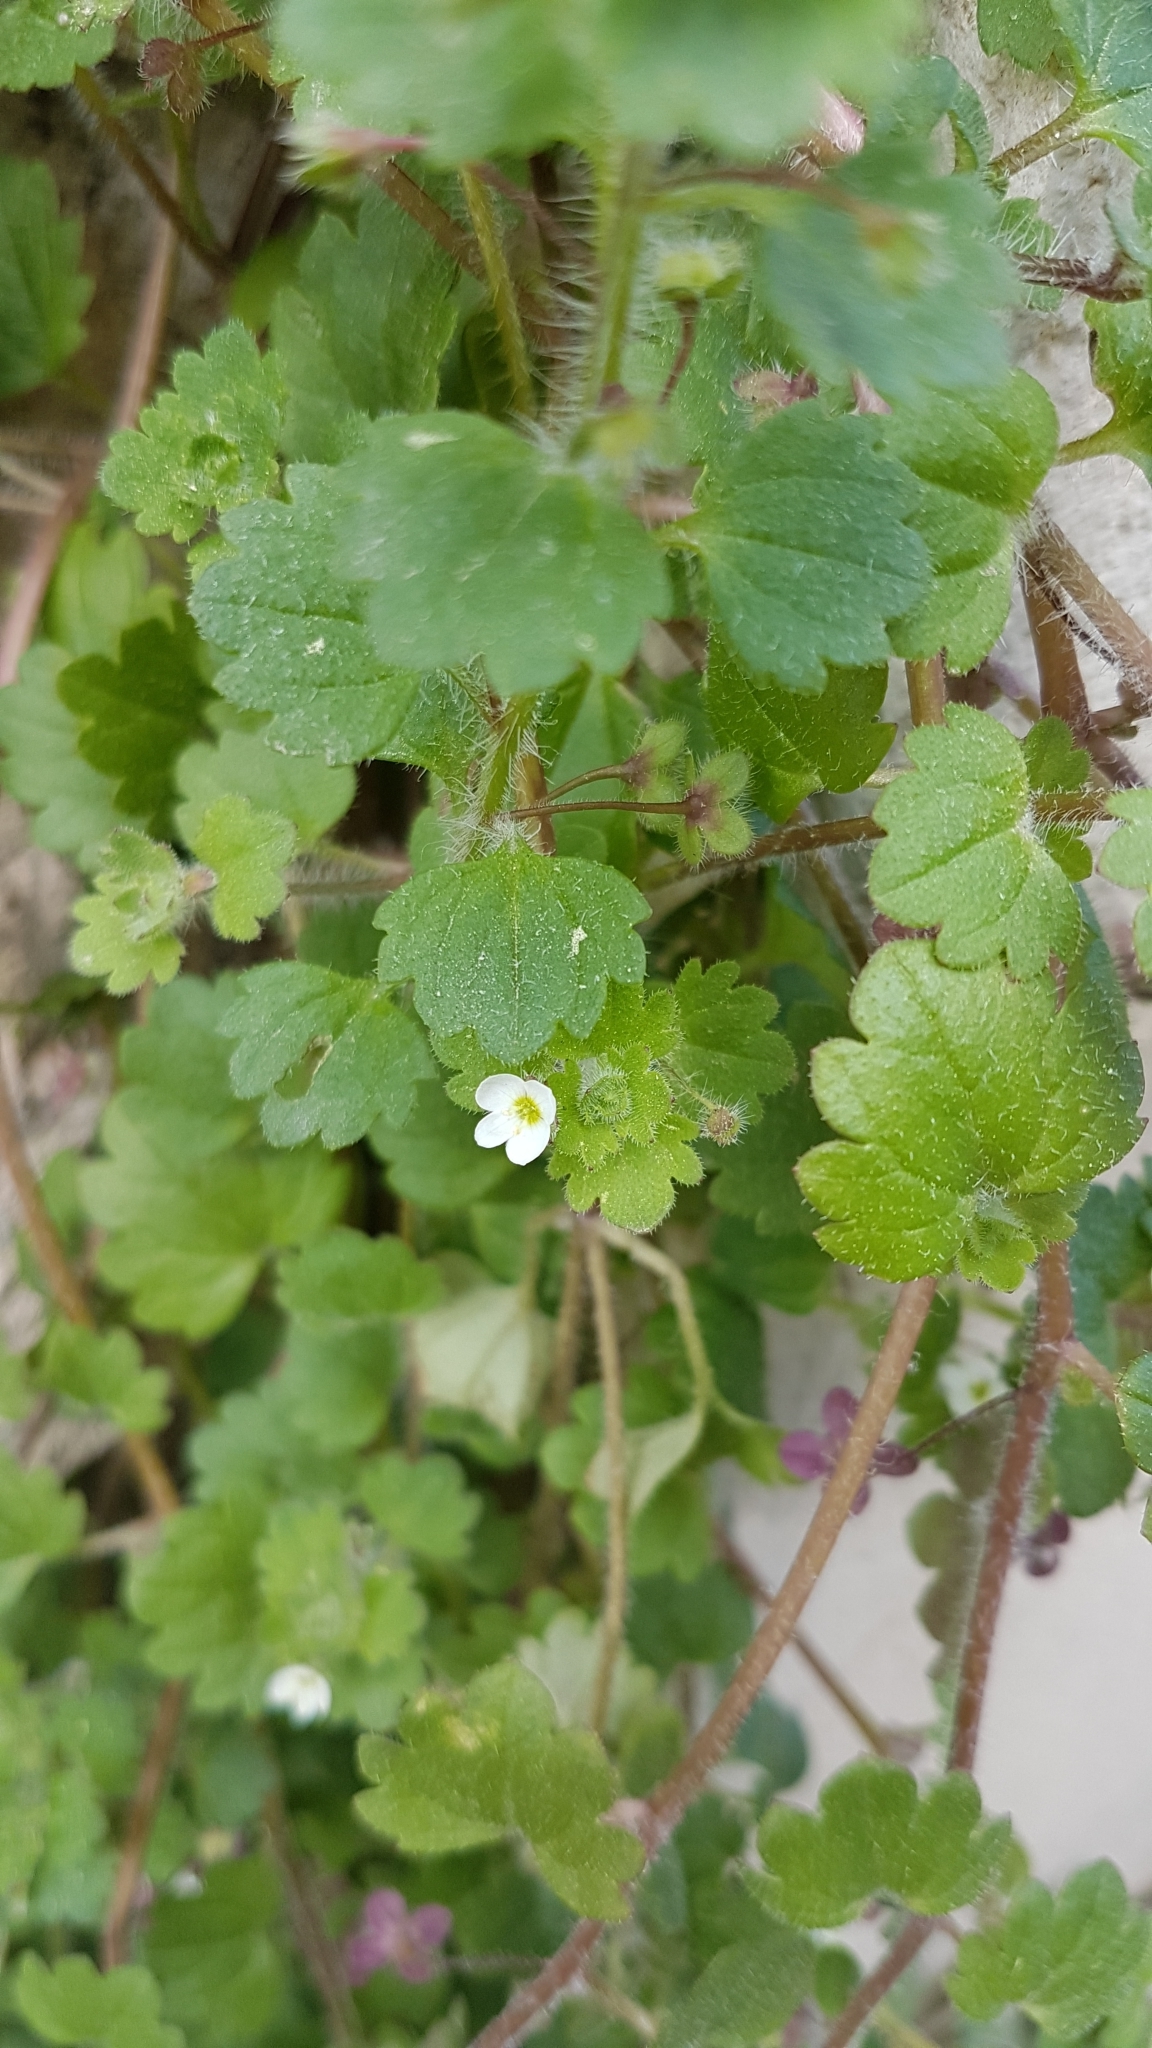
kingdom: Plantae
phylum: Tracheophyta
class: Magnoliopsida
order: Lamiales
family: Plantaginaceae
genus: Veronica
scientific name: Veronica cymbalaria
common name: Pale speedwell
